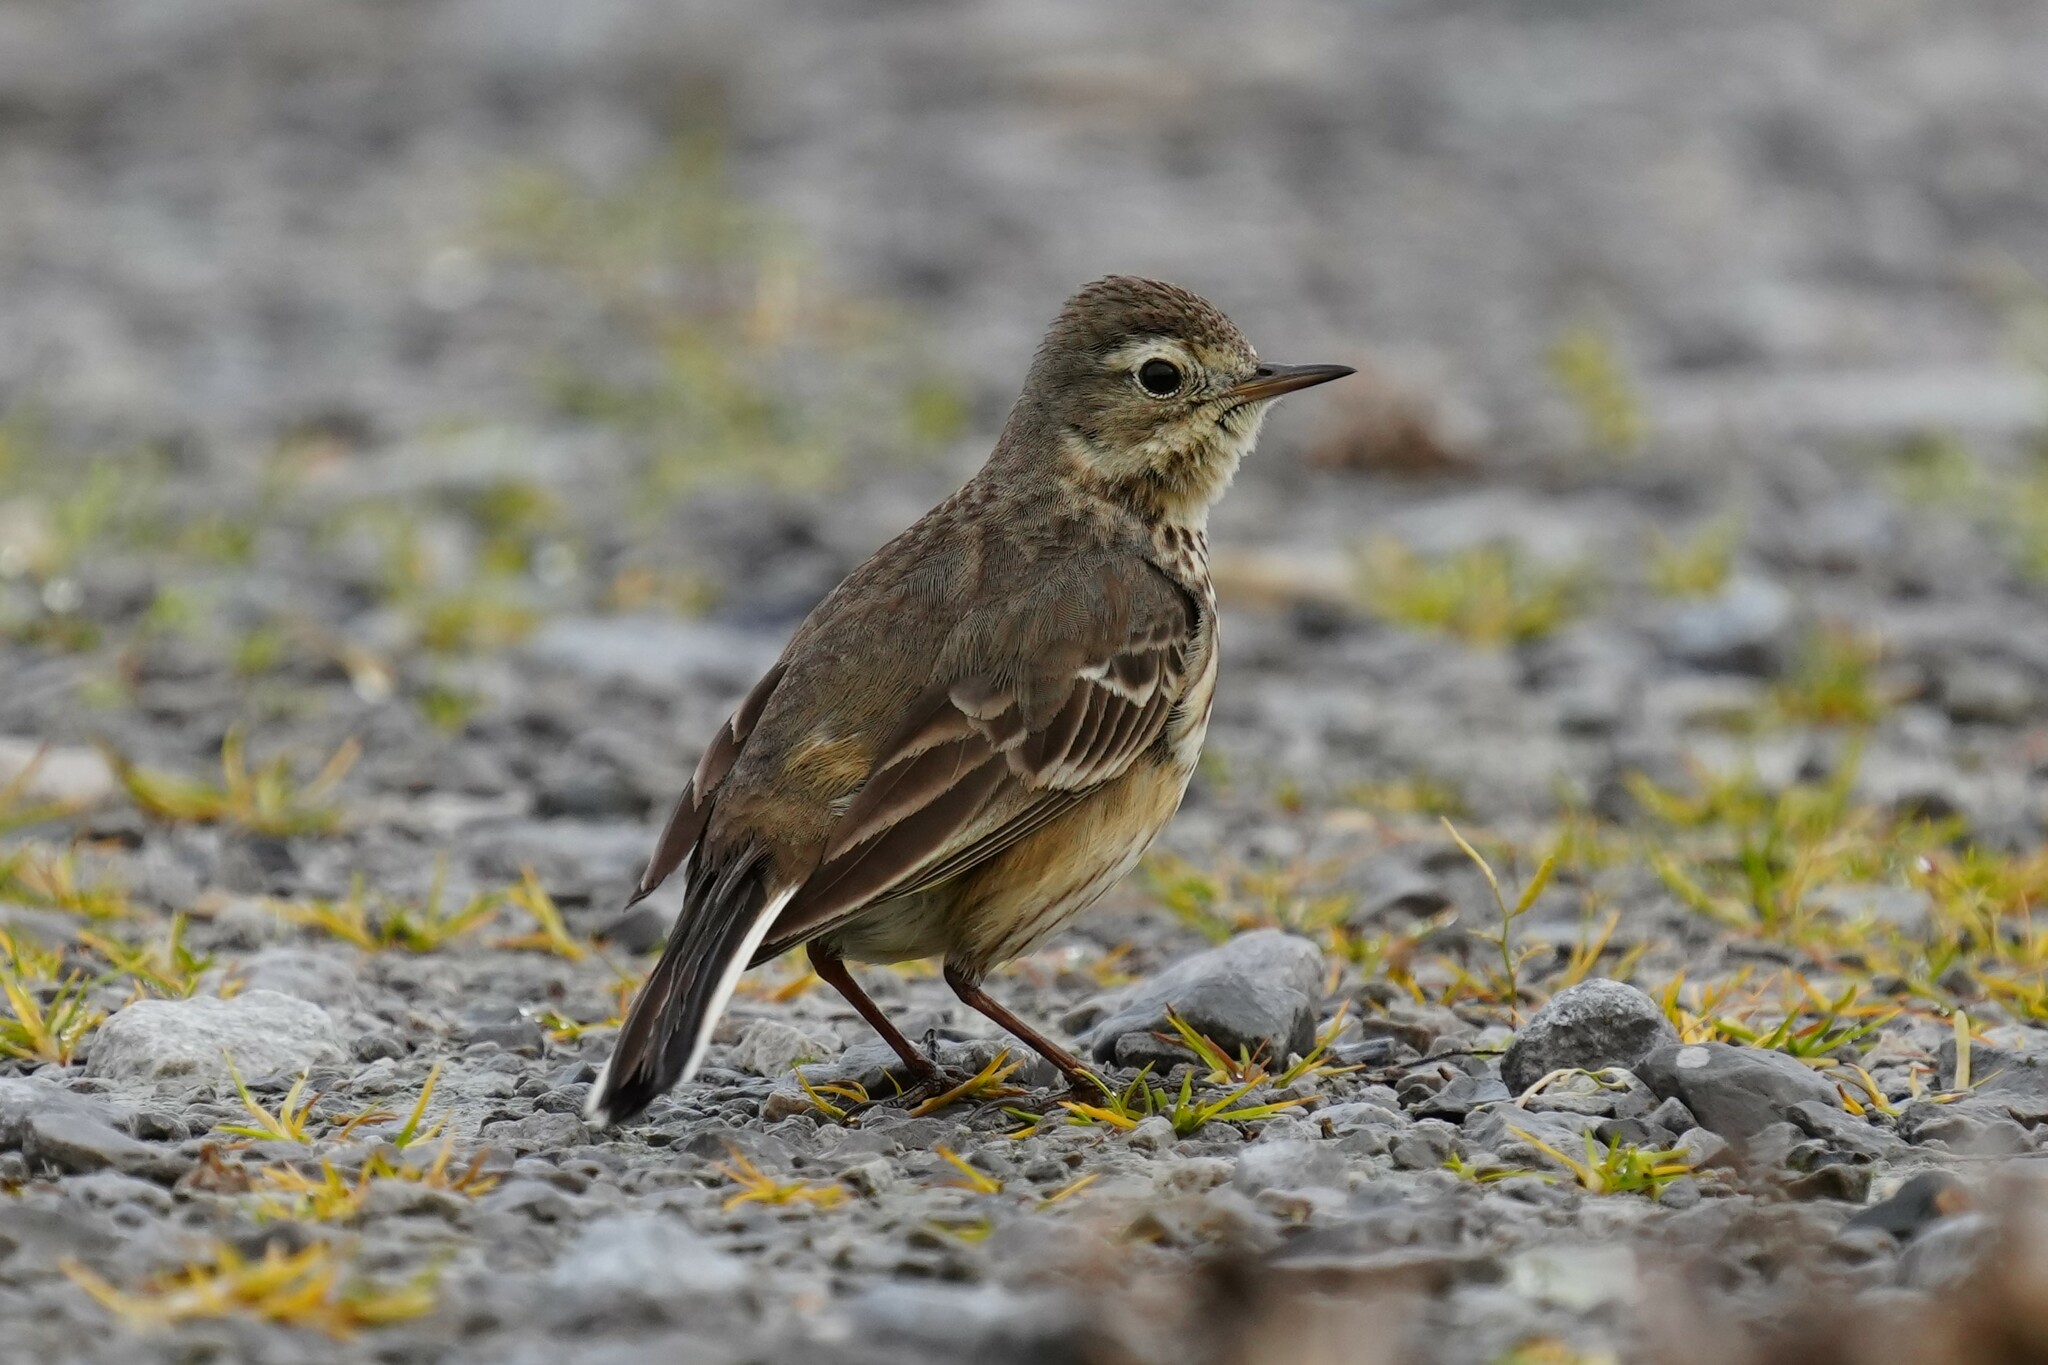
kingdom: Animalia
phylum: Chordata
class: Aves
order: Passeriformes
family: Motacillidae
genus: Anthus
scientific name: Anthus rubescens
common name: Buff-bellied pipit
